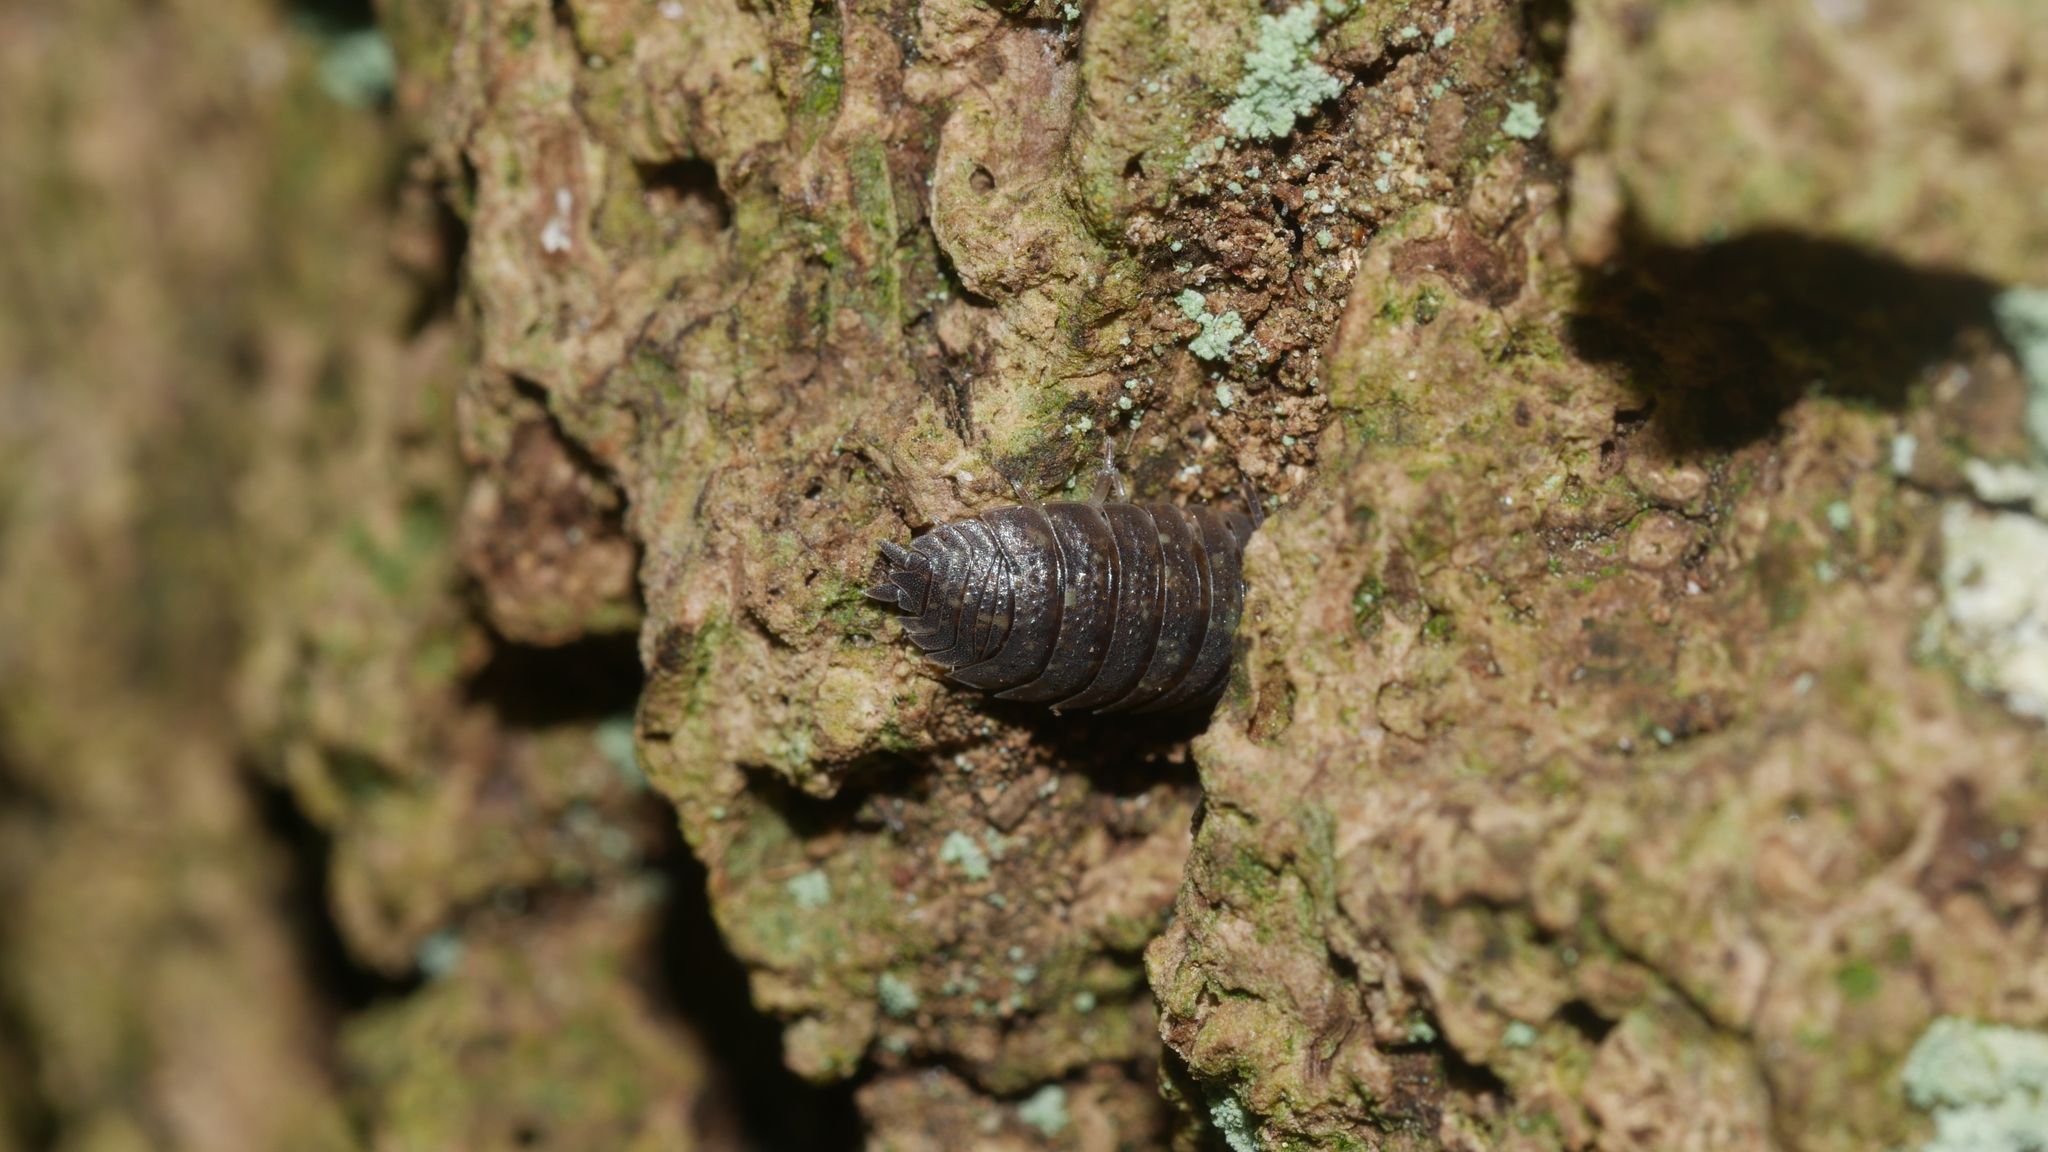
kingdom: Animalia
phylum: Arthropoda
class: Malacostraca
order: Isopoda
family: Porcellionidae
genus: Porcellio
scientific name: Porcellio scaber
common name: Common rough woodlouse
